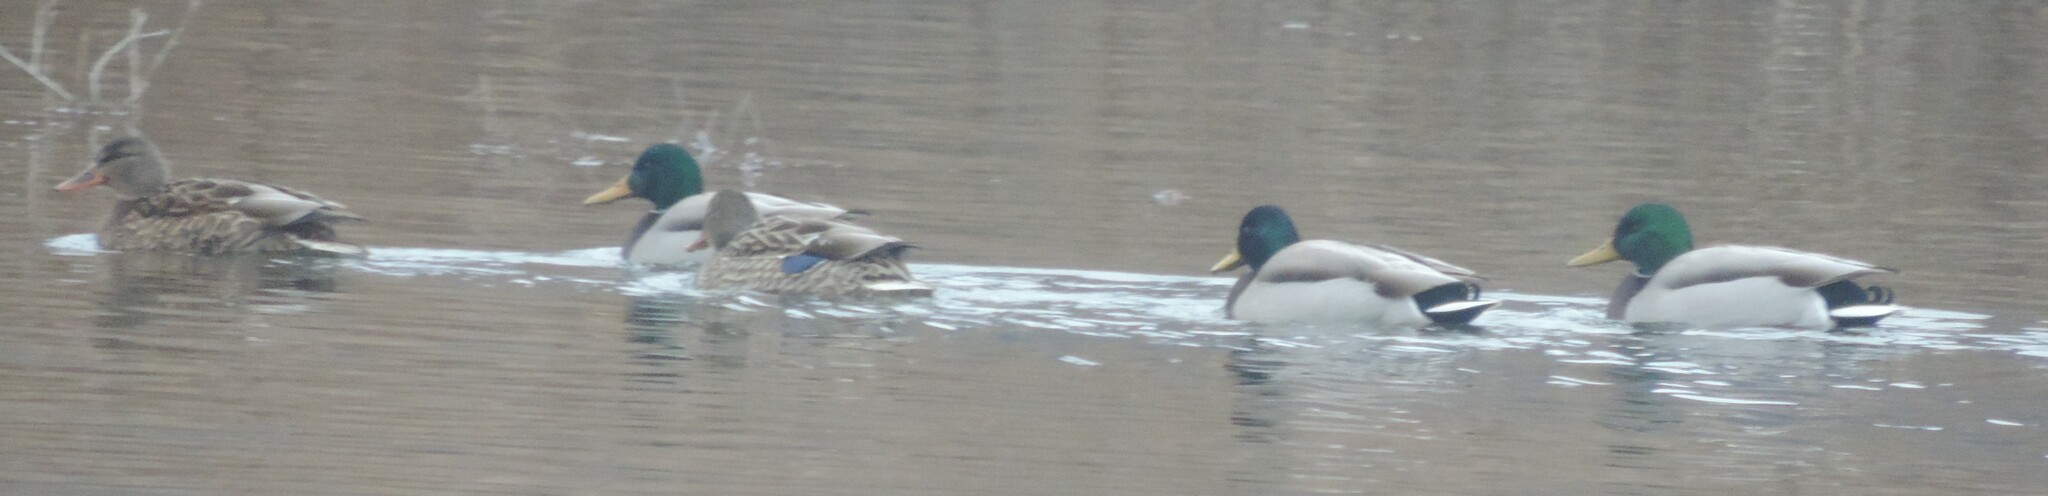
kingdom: Animalia
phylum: Chordata
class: Aves
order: Anseriformes
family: Anatidae
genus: Anas
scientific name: Anas platyrhynchos
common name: Mallard
